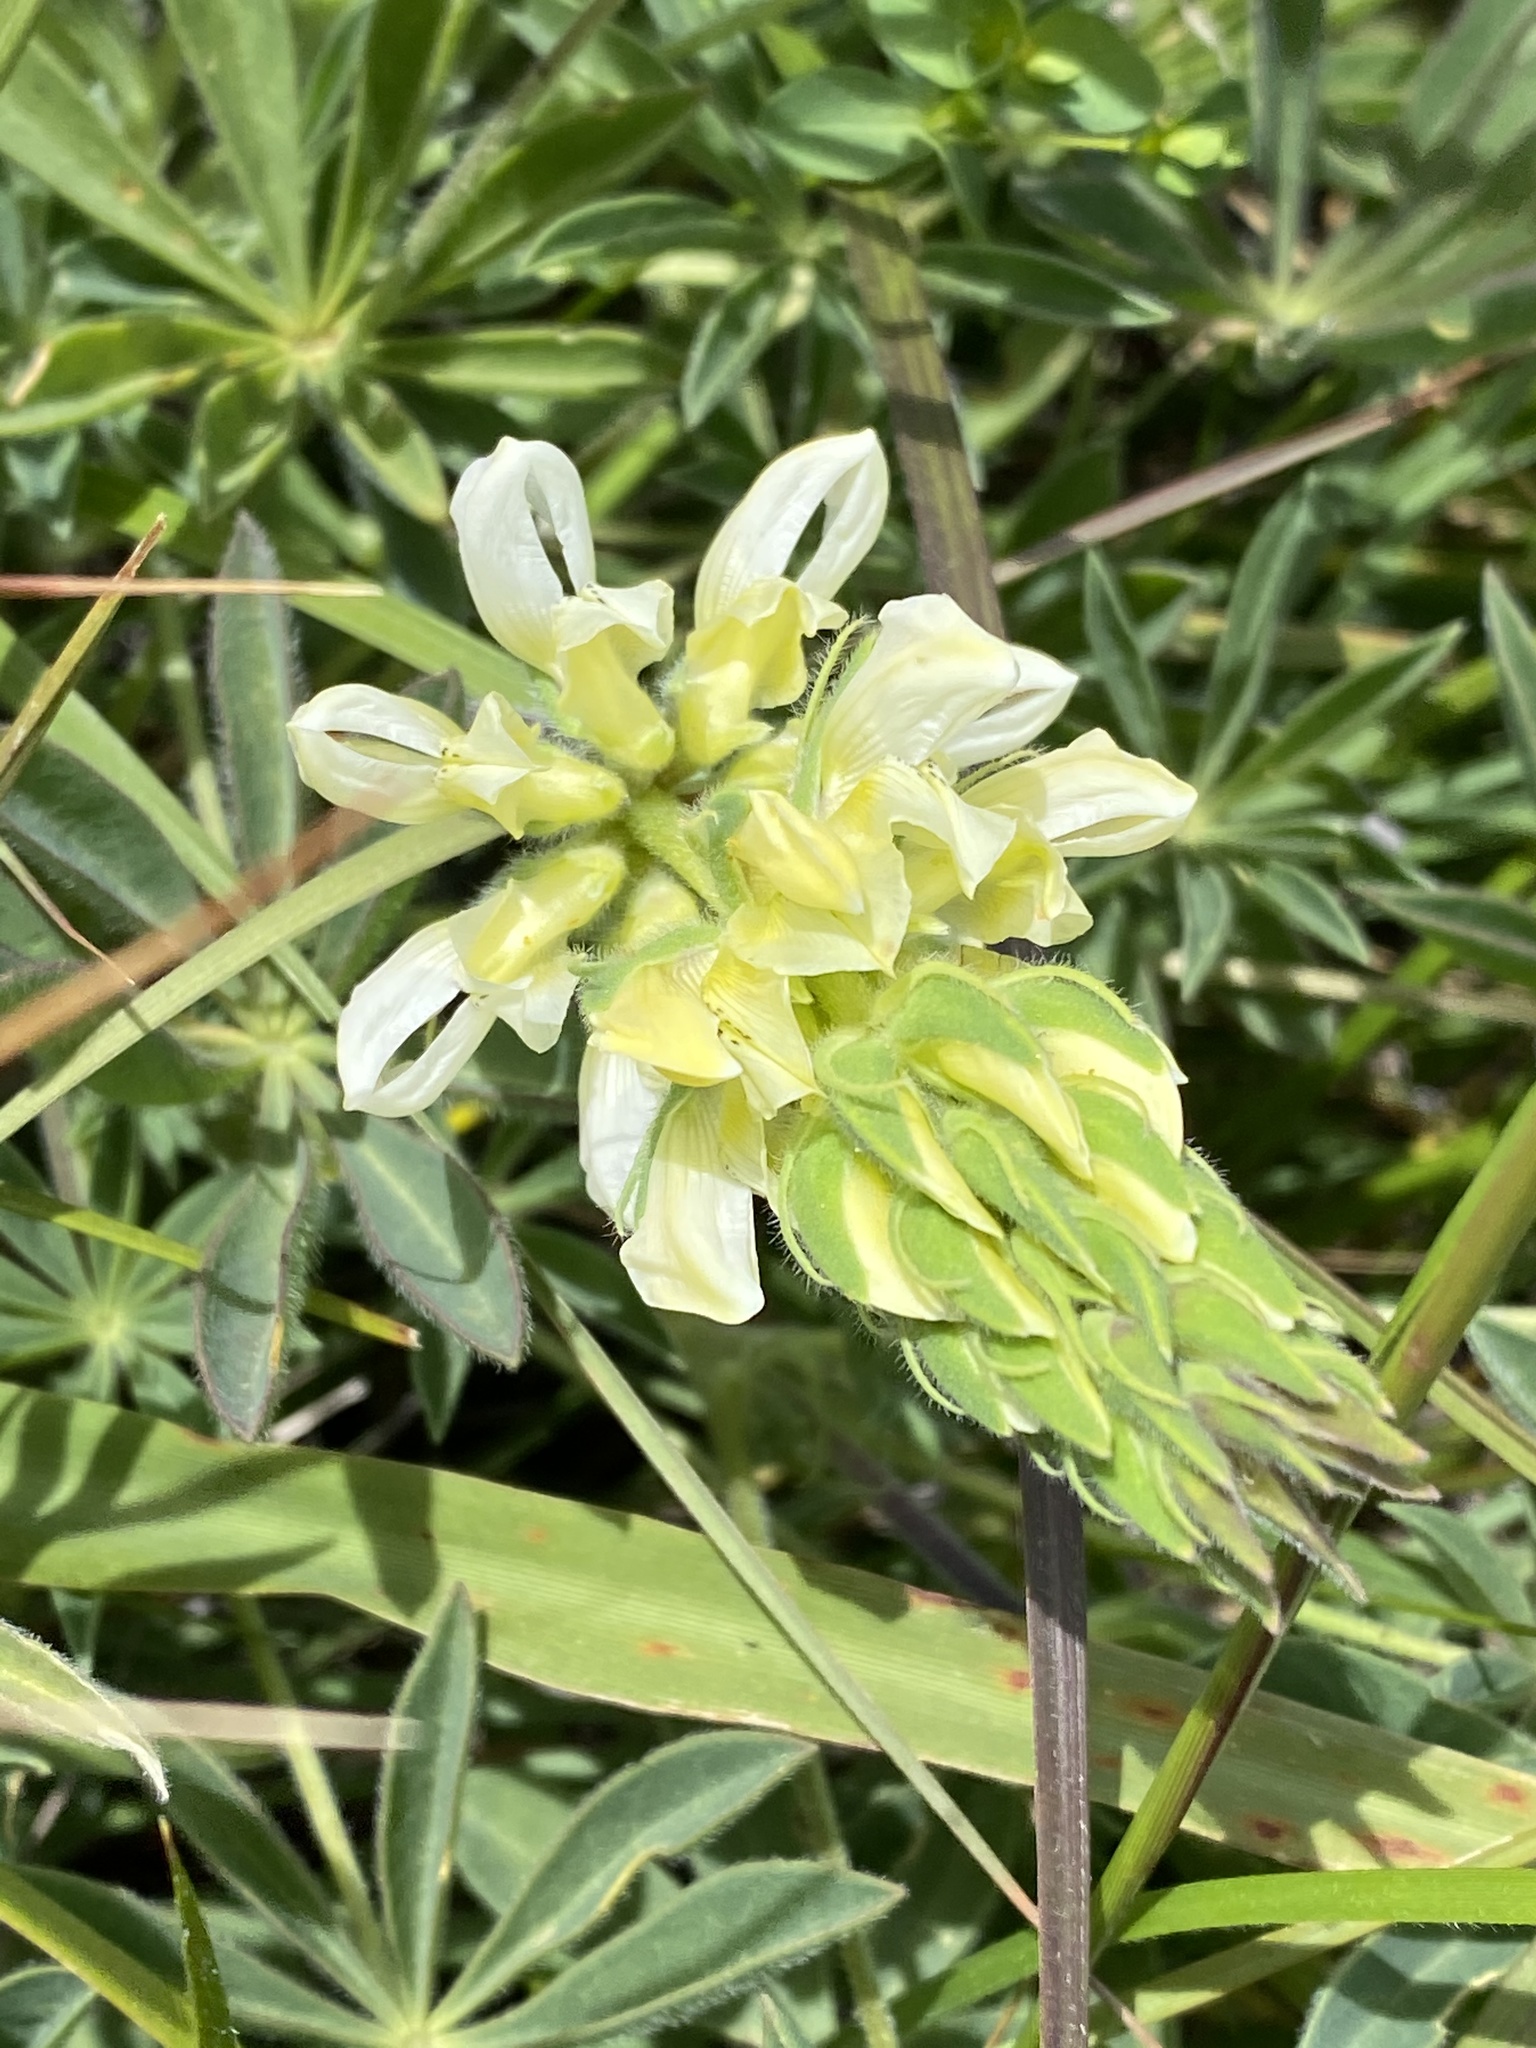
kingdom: Plantae
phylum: Tracheophyta
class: Magnoliopsida
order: Fabales
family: Fabaceae
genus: Lupinus
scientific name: Lupinus microcarpus
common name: Chick lupine
